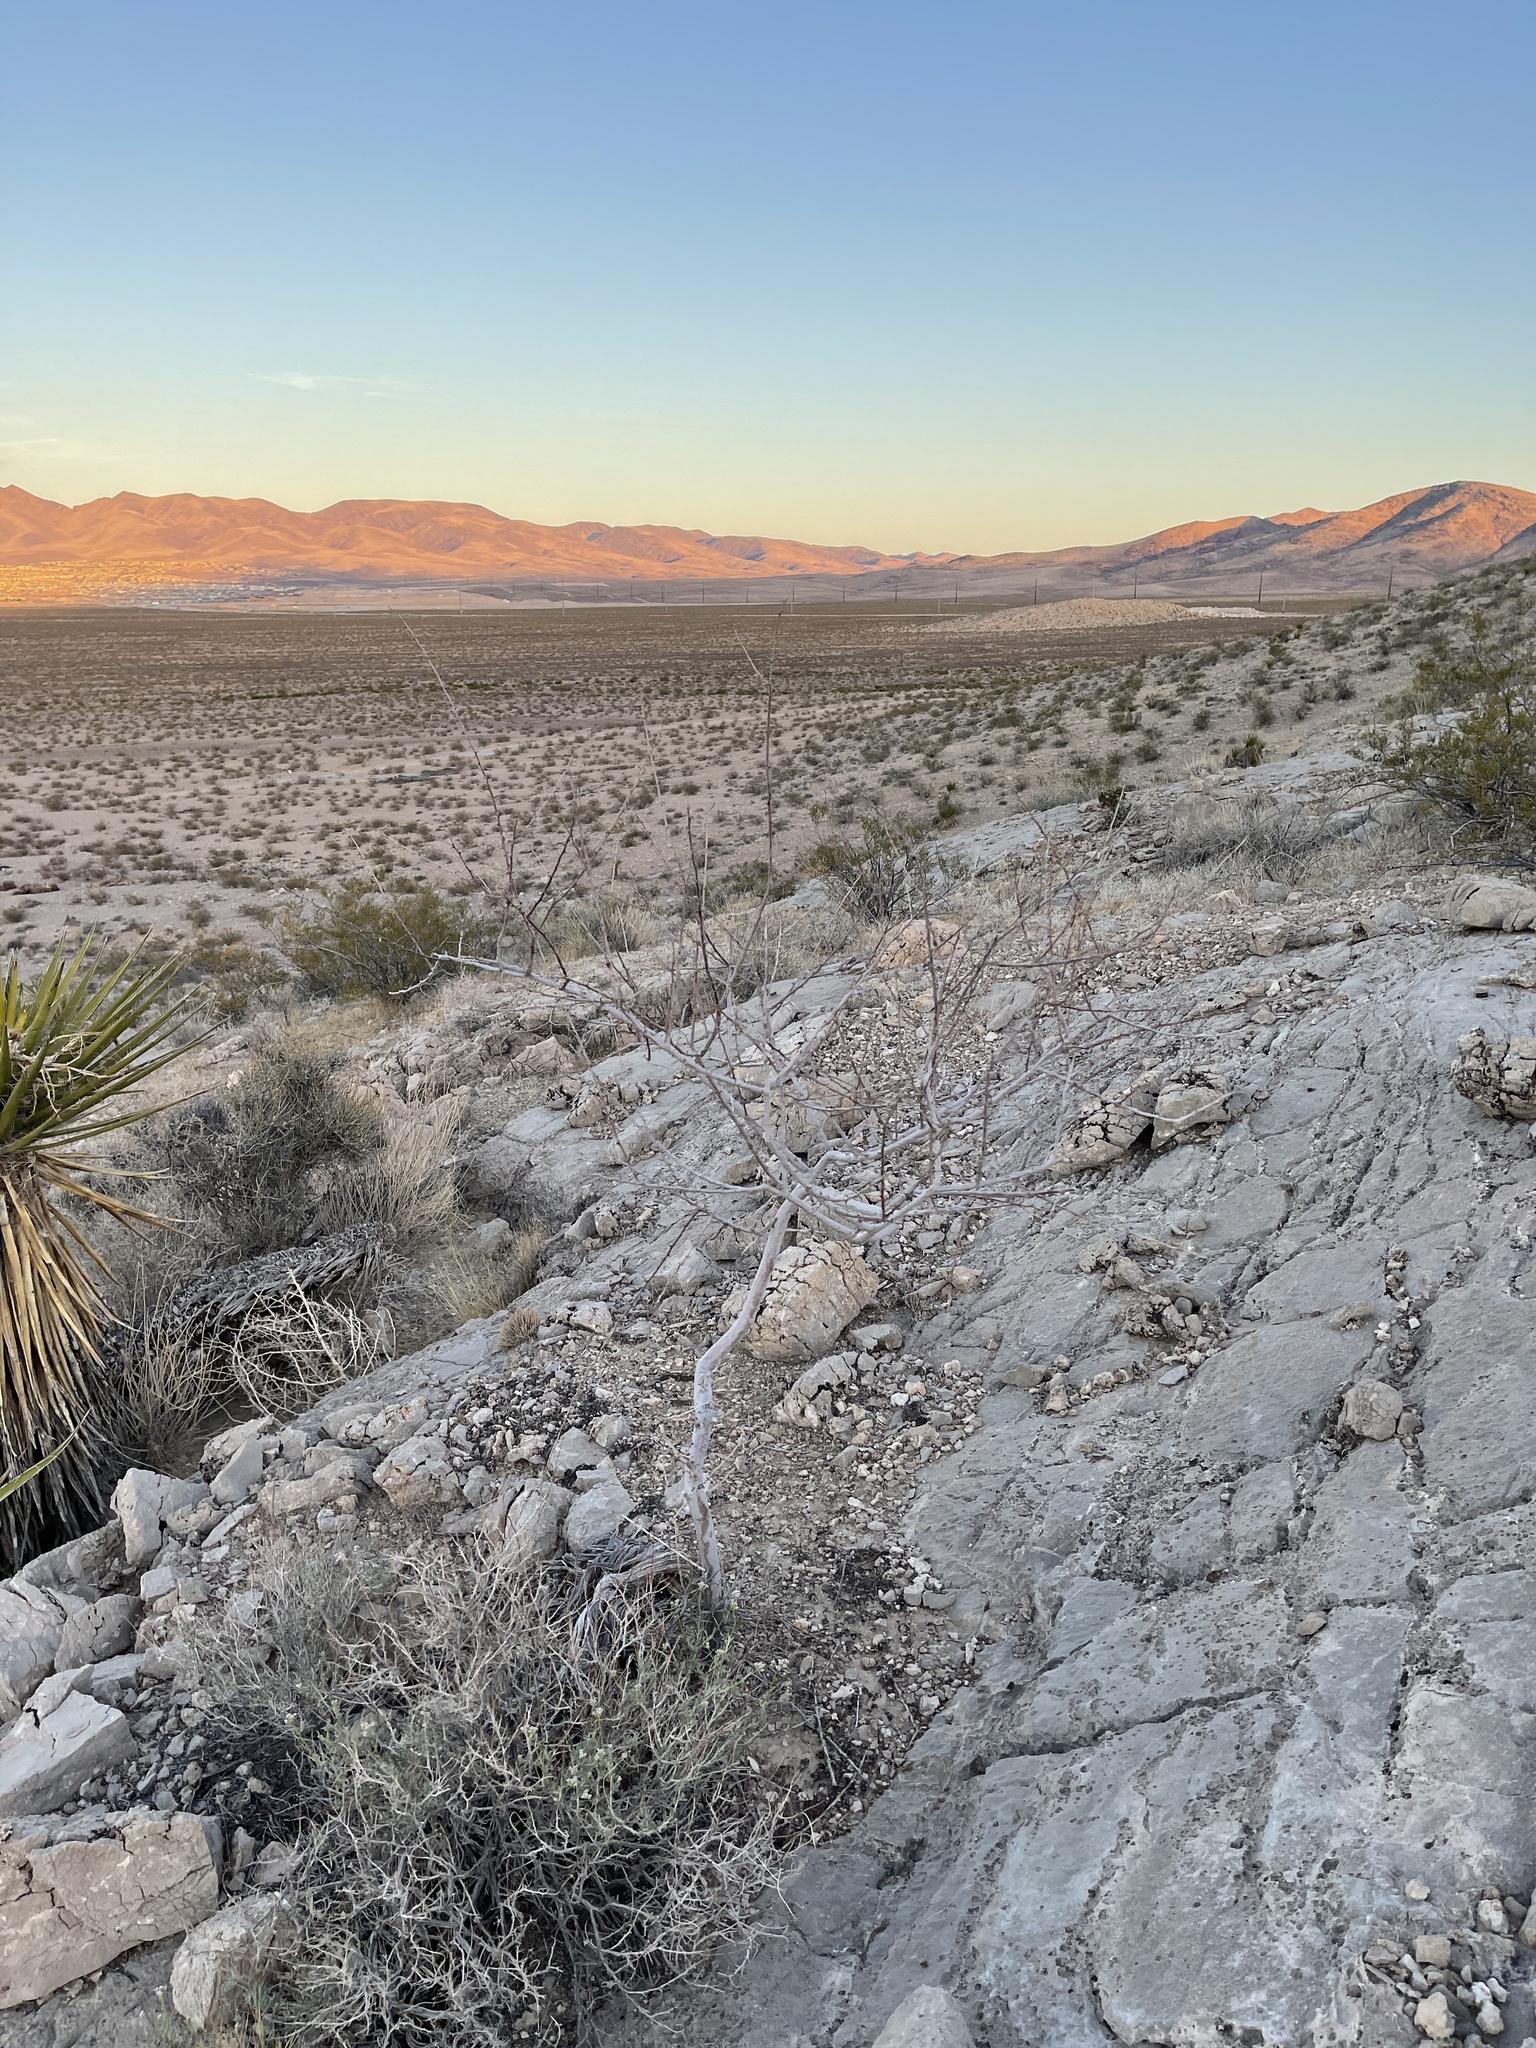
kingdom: Plantae
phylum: Tracheophyta
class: Magnoliopsida
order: Fabales
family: Fabaceae
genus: Senegalia
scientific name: Senegalia greggii
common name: Texas-mimosa
